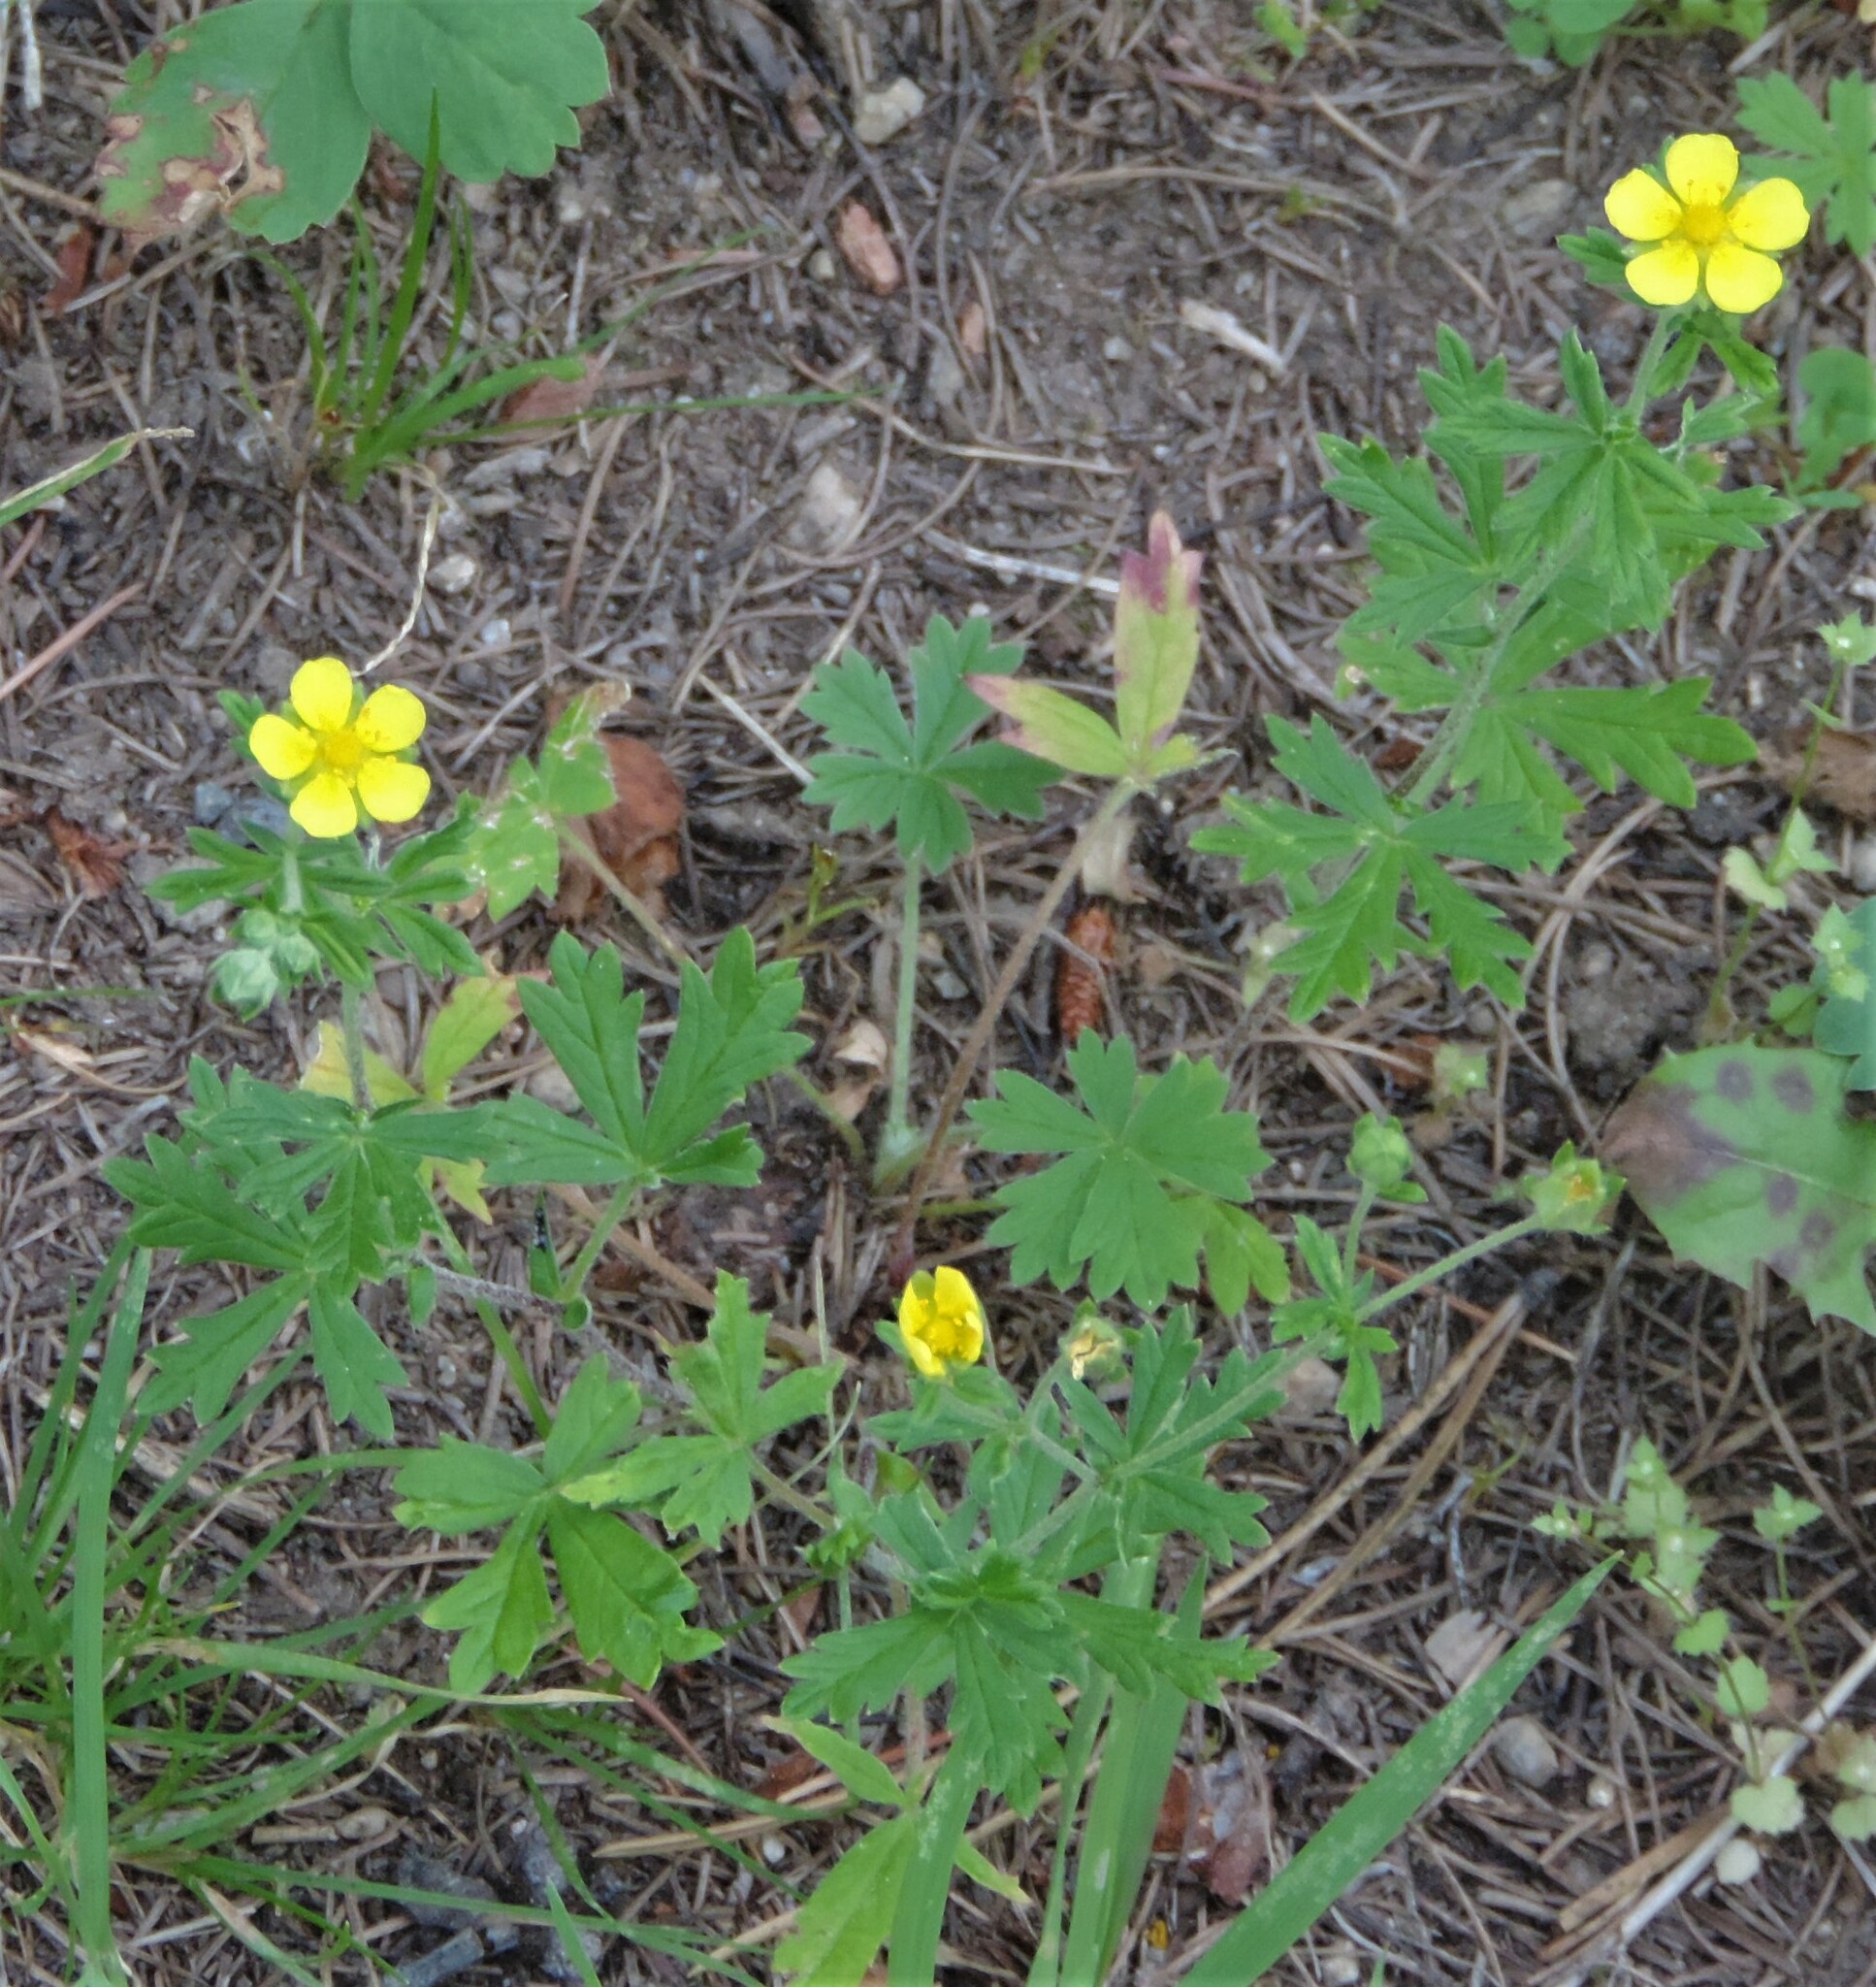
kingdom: Plantae
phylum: Tracheophyta
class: Magnoliopsida
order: Rosales
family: Rosaceae
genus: Potentilla
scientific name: Potentilla argentea
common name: Hoary cinquefoil
